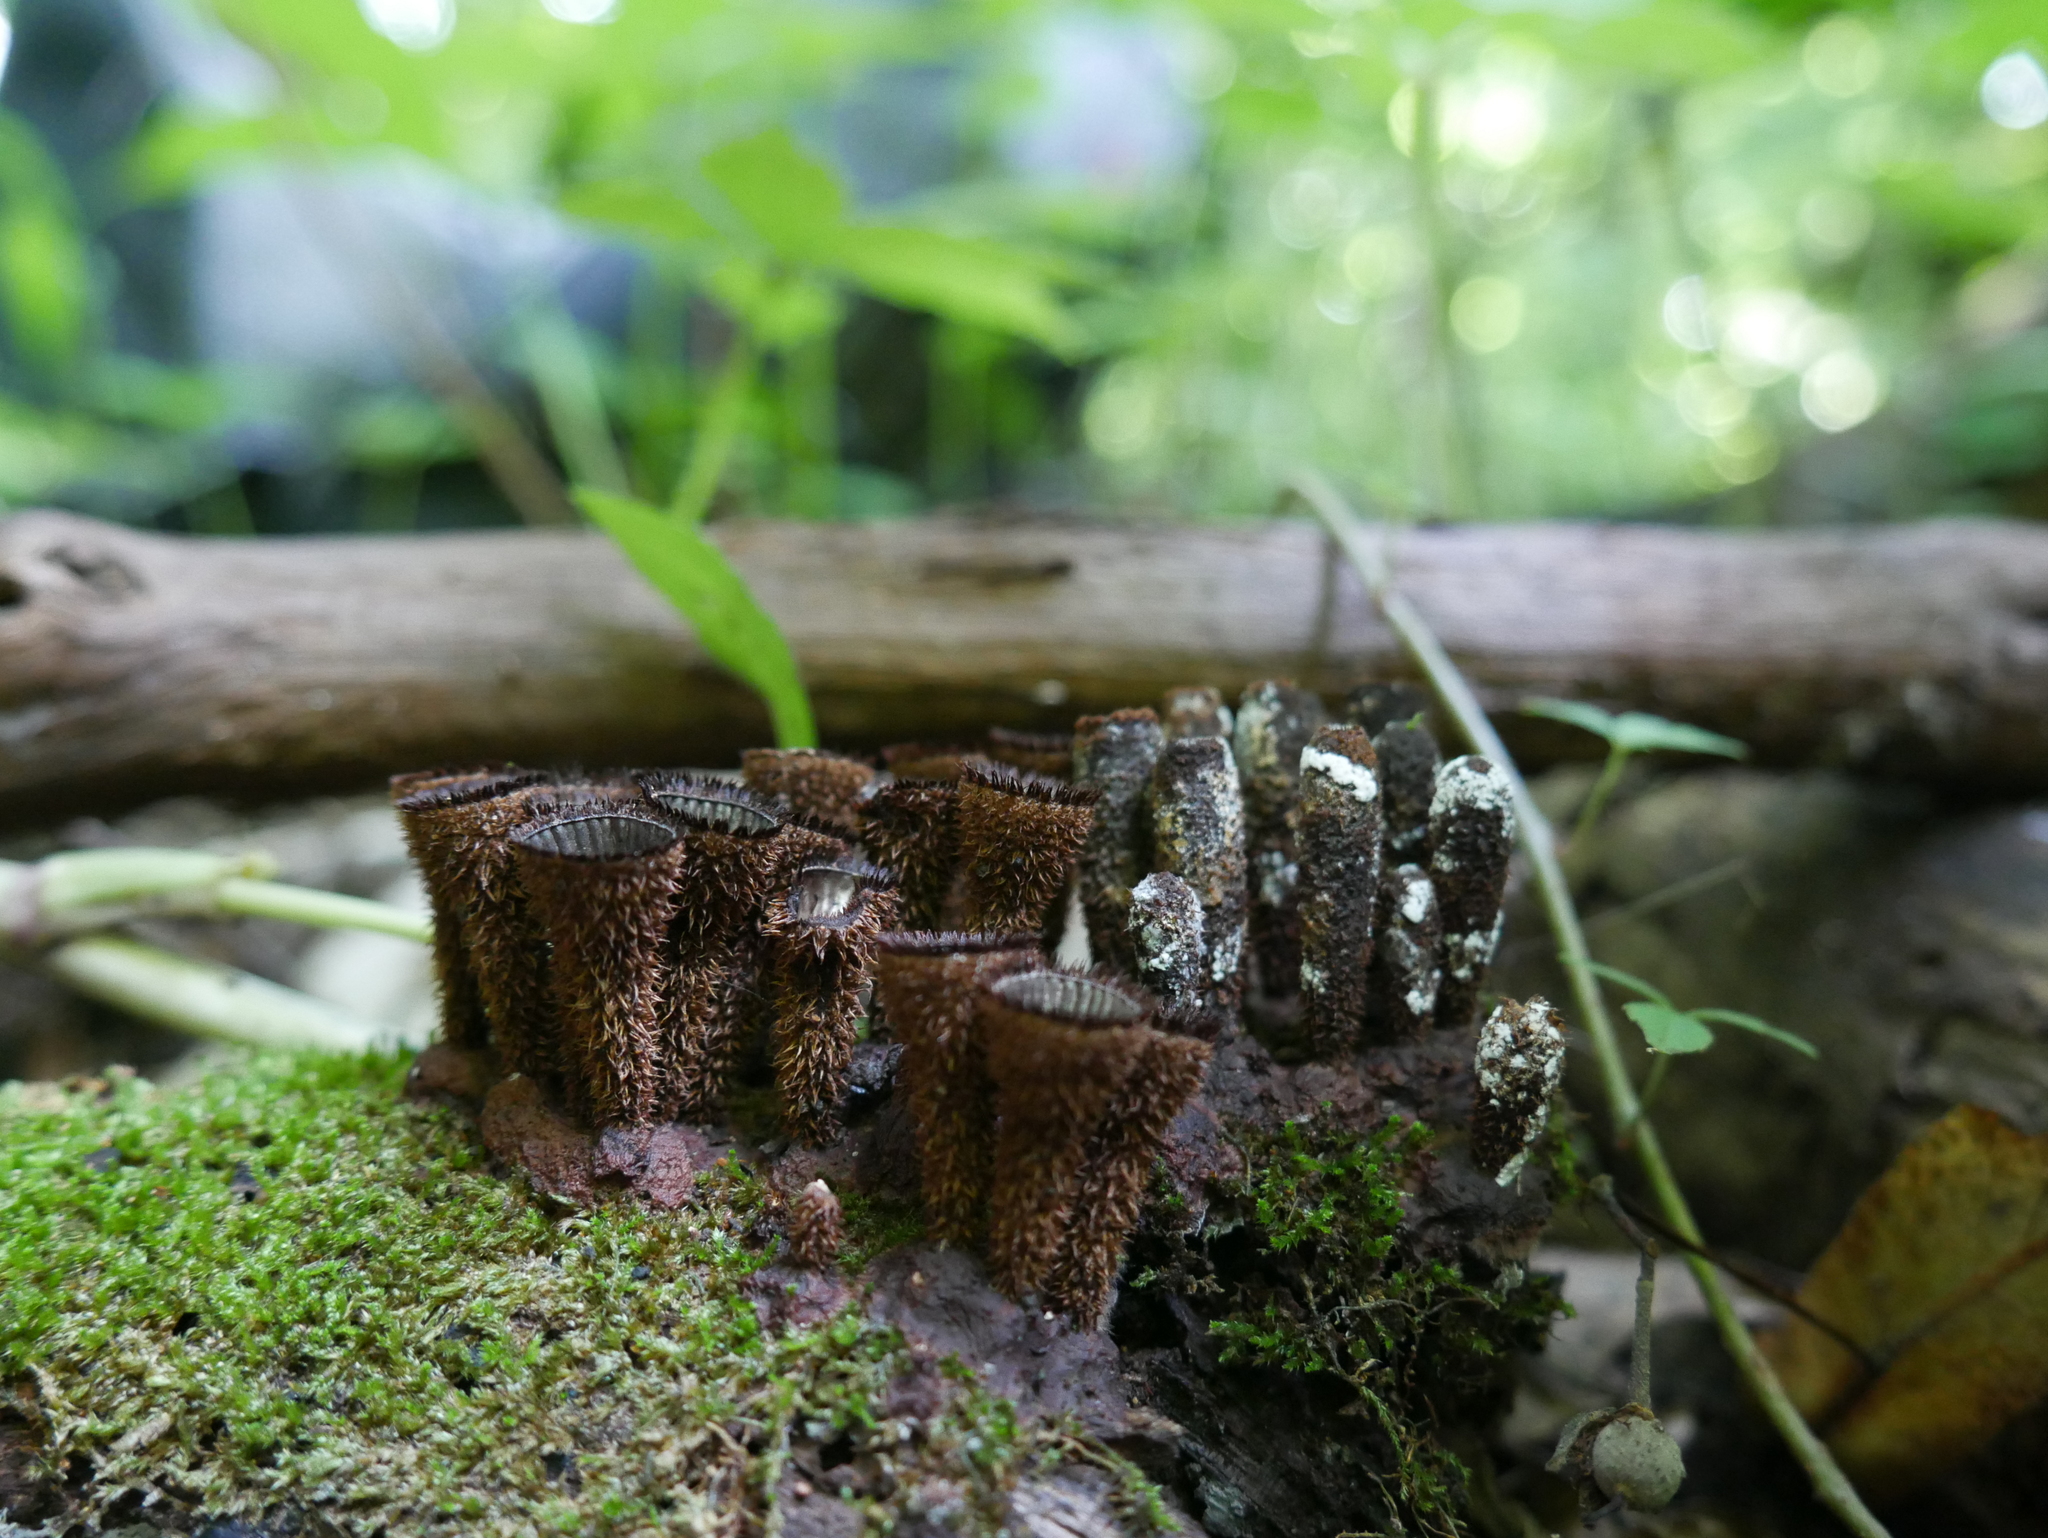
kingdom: Fungi
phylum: Basidiomycota
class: Agaricomycetes
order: Agaricales
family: Agaricaceae
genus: Cyathus
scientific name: Cyathus striatus
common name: Fluted bird's nest
